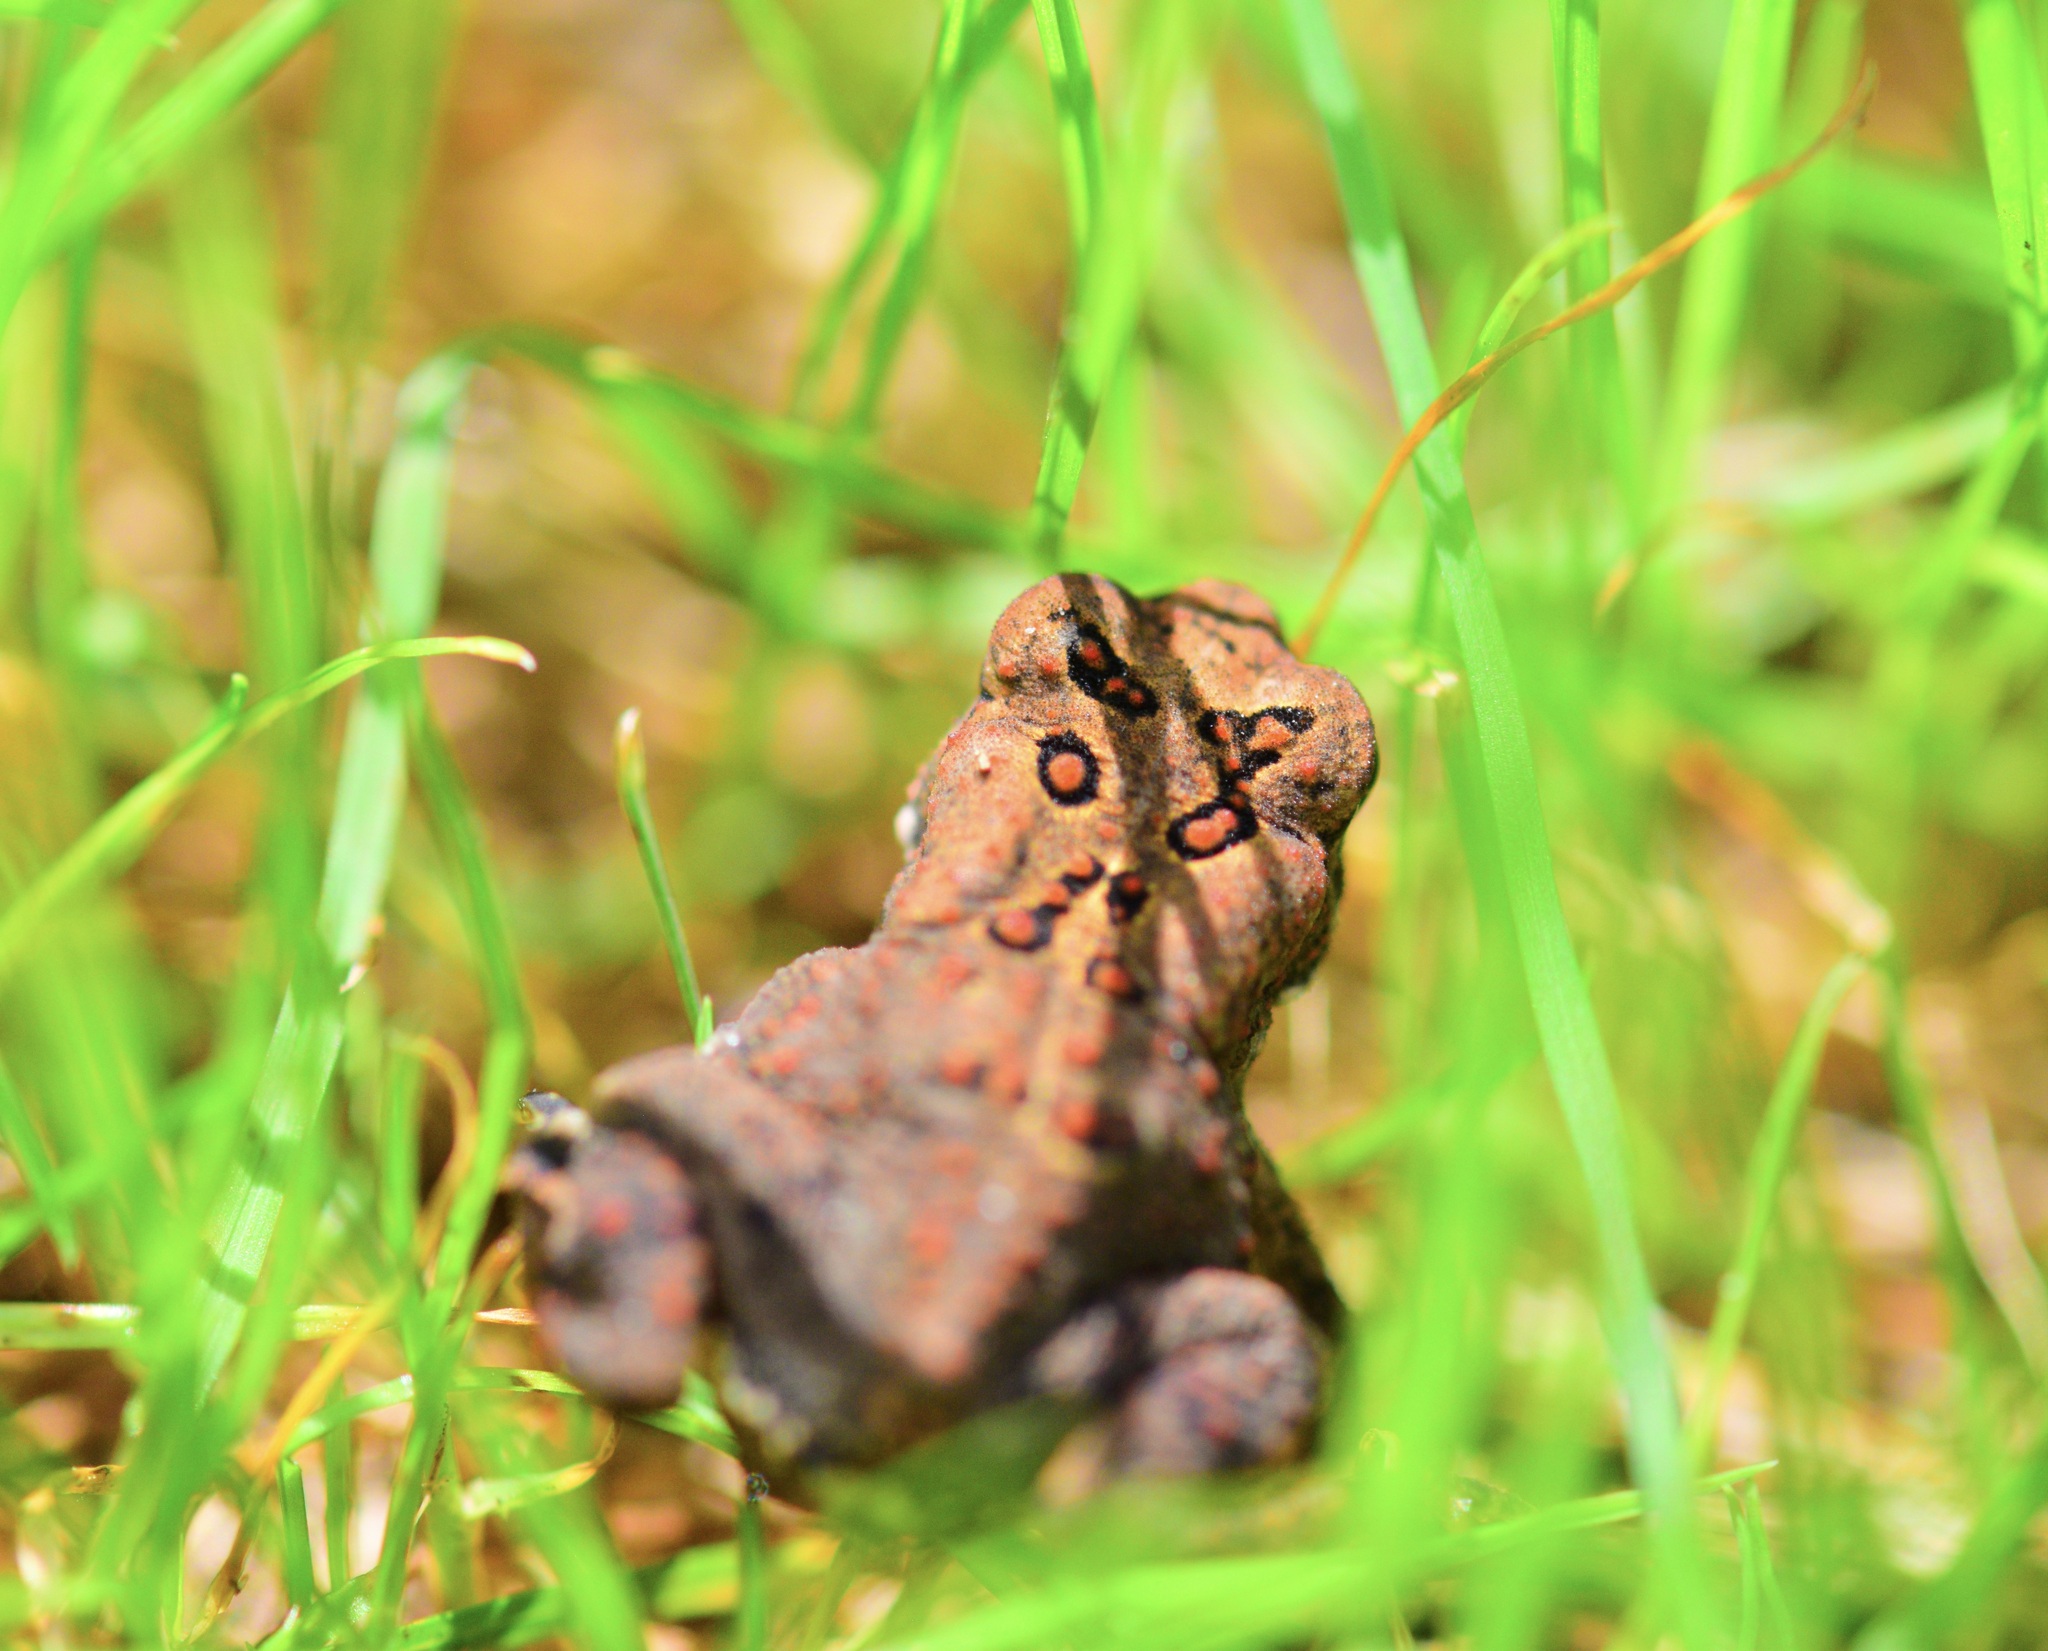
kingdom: Animalia
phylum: Chordata
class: Amphibia
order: Anura
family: Bufonidae
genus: Anaxyrus
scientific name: Anaxyrus americanus
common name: American toad
